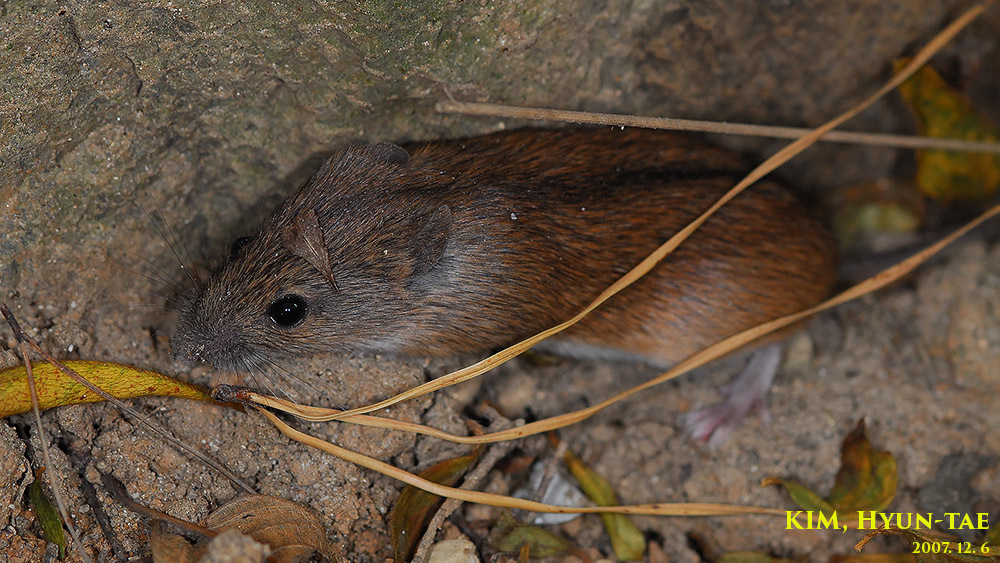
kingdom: Animalia
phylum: Chordata
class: Mammalia
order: Rodentia
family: Muridae
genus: Apodemus
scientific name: Apodemus agrarius
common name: Striped field mouse
